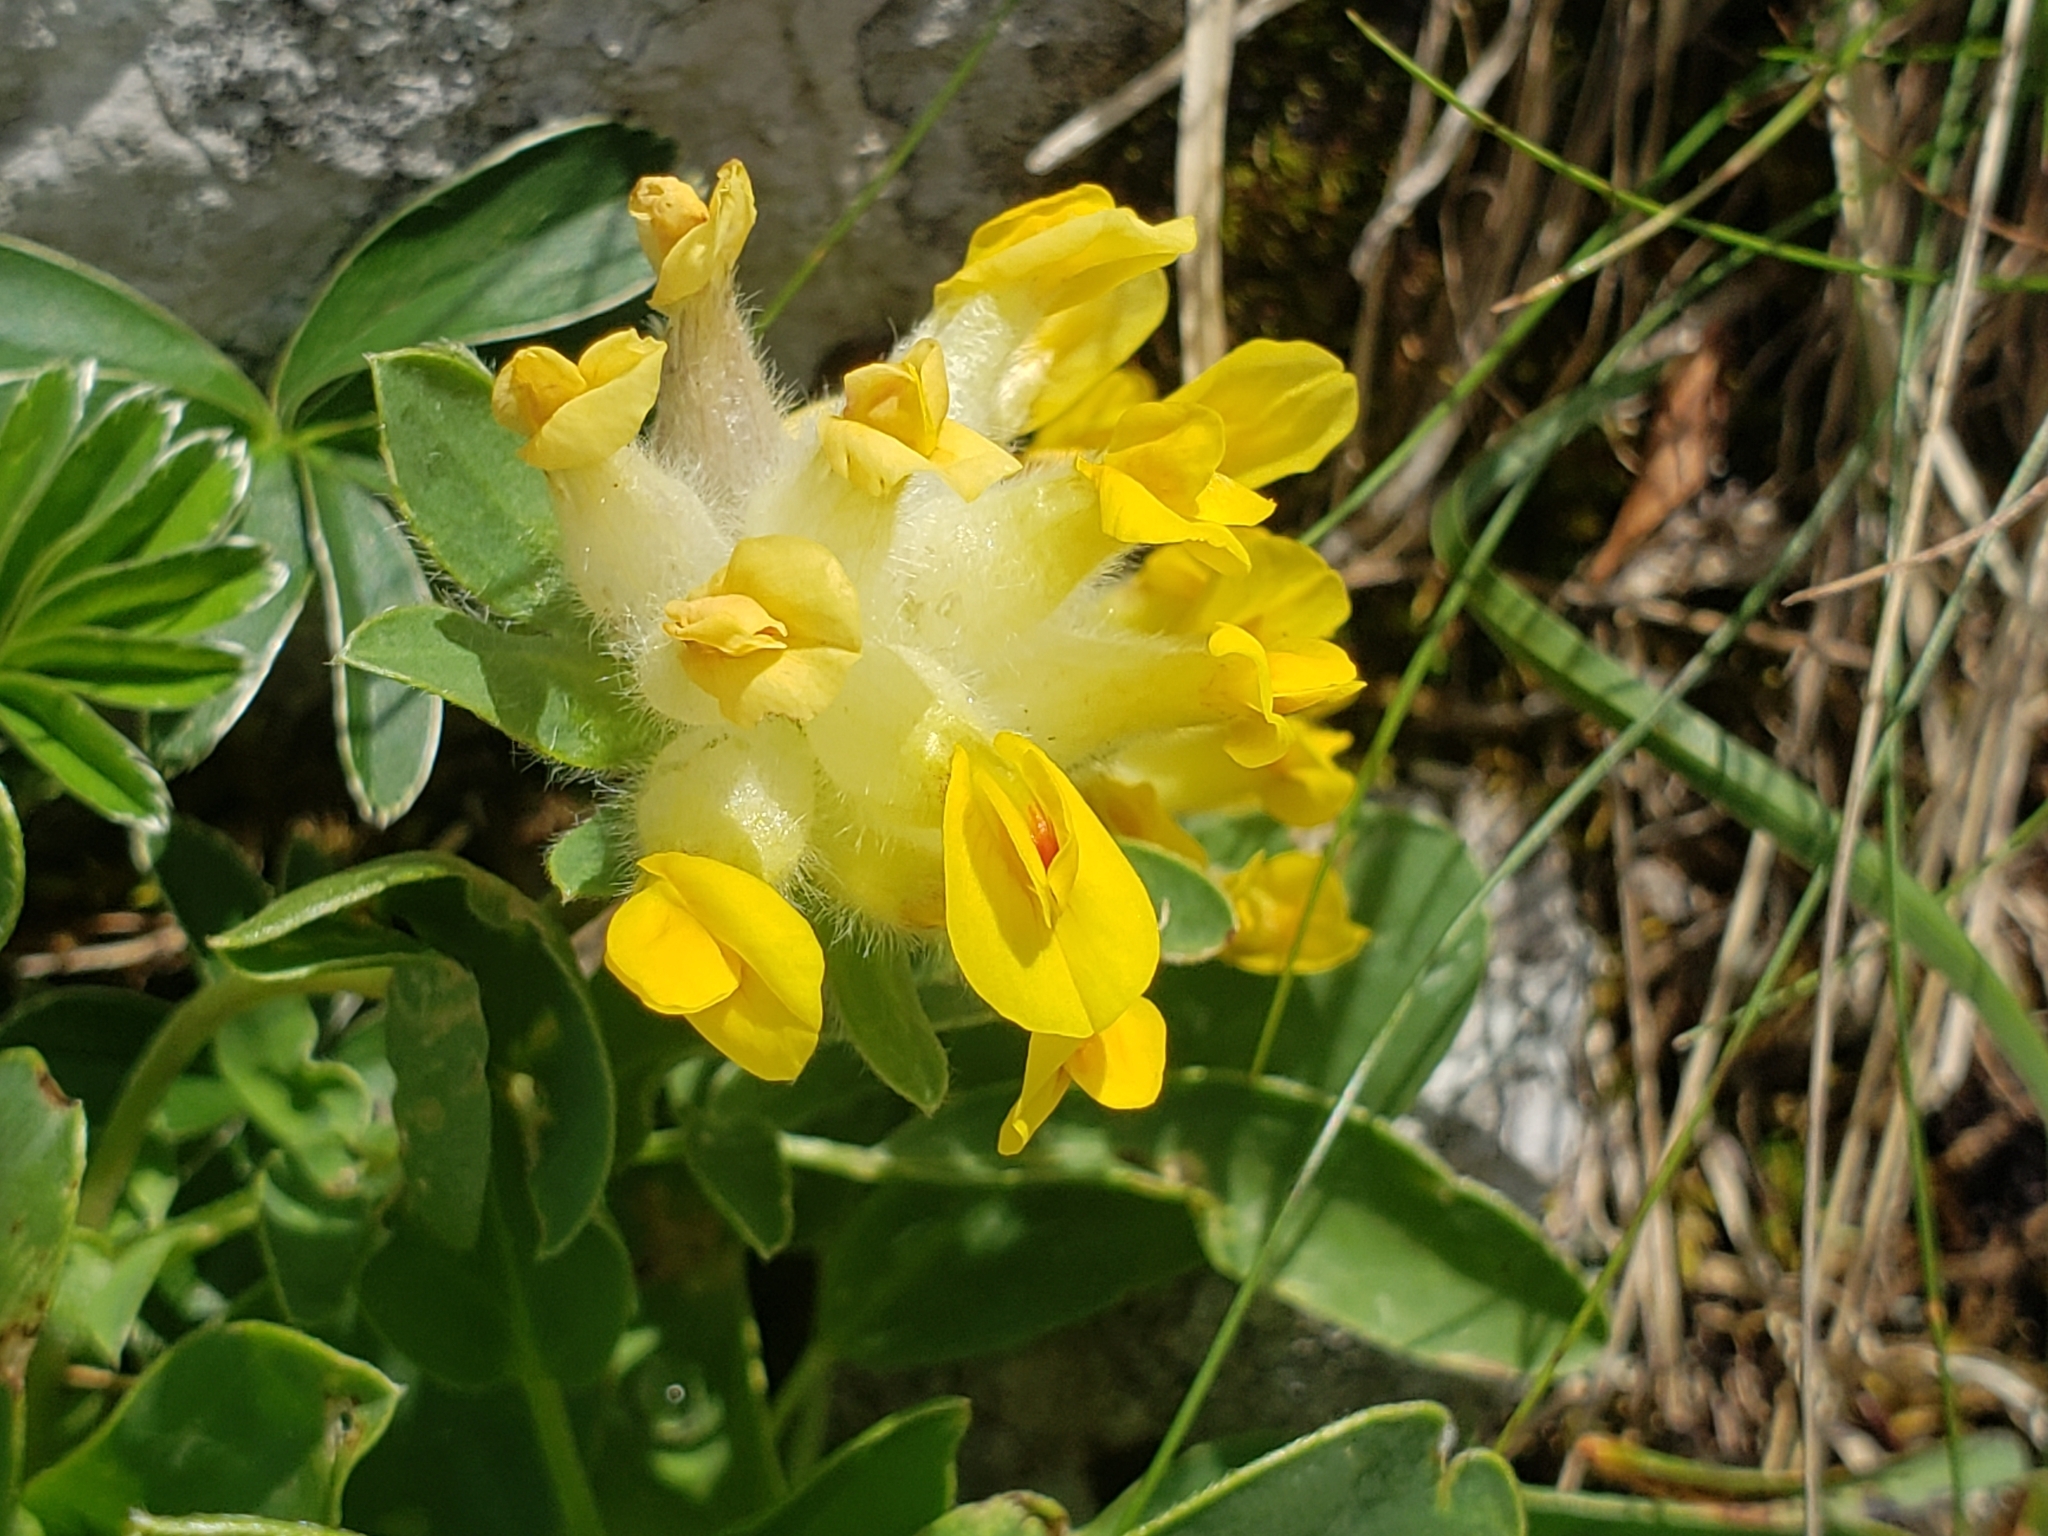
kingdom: Plantae
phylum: Tracheophyta
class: Magnoliopsida
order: Fabales
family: Fabaceae
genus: Anthyllis
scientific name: Anthyllis vulneraria
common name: Kidney vetch
